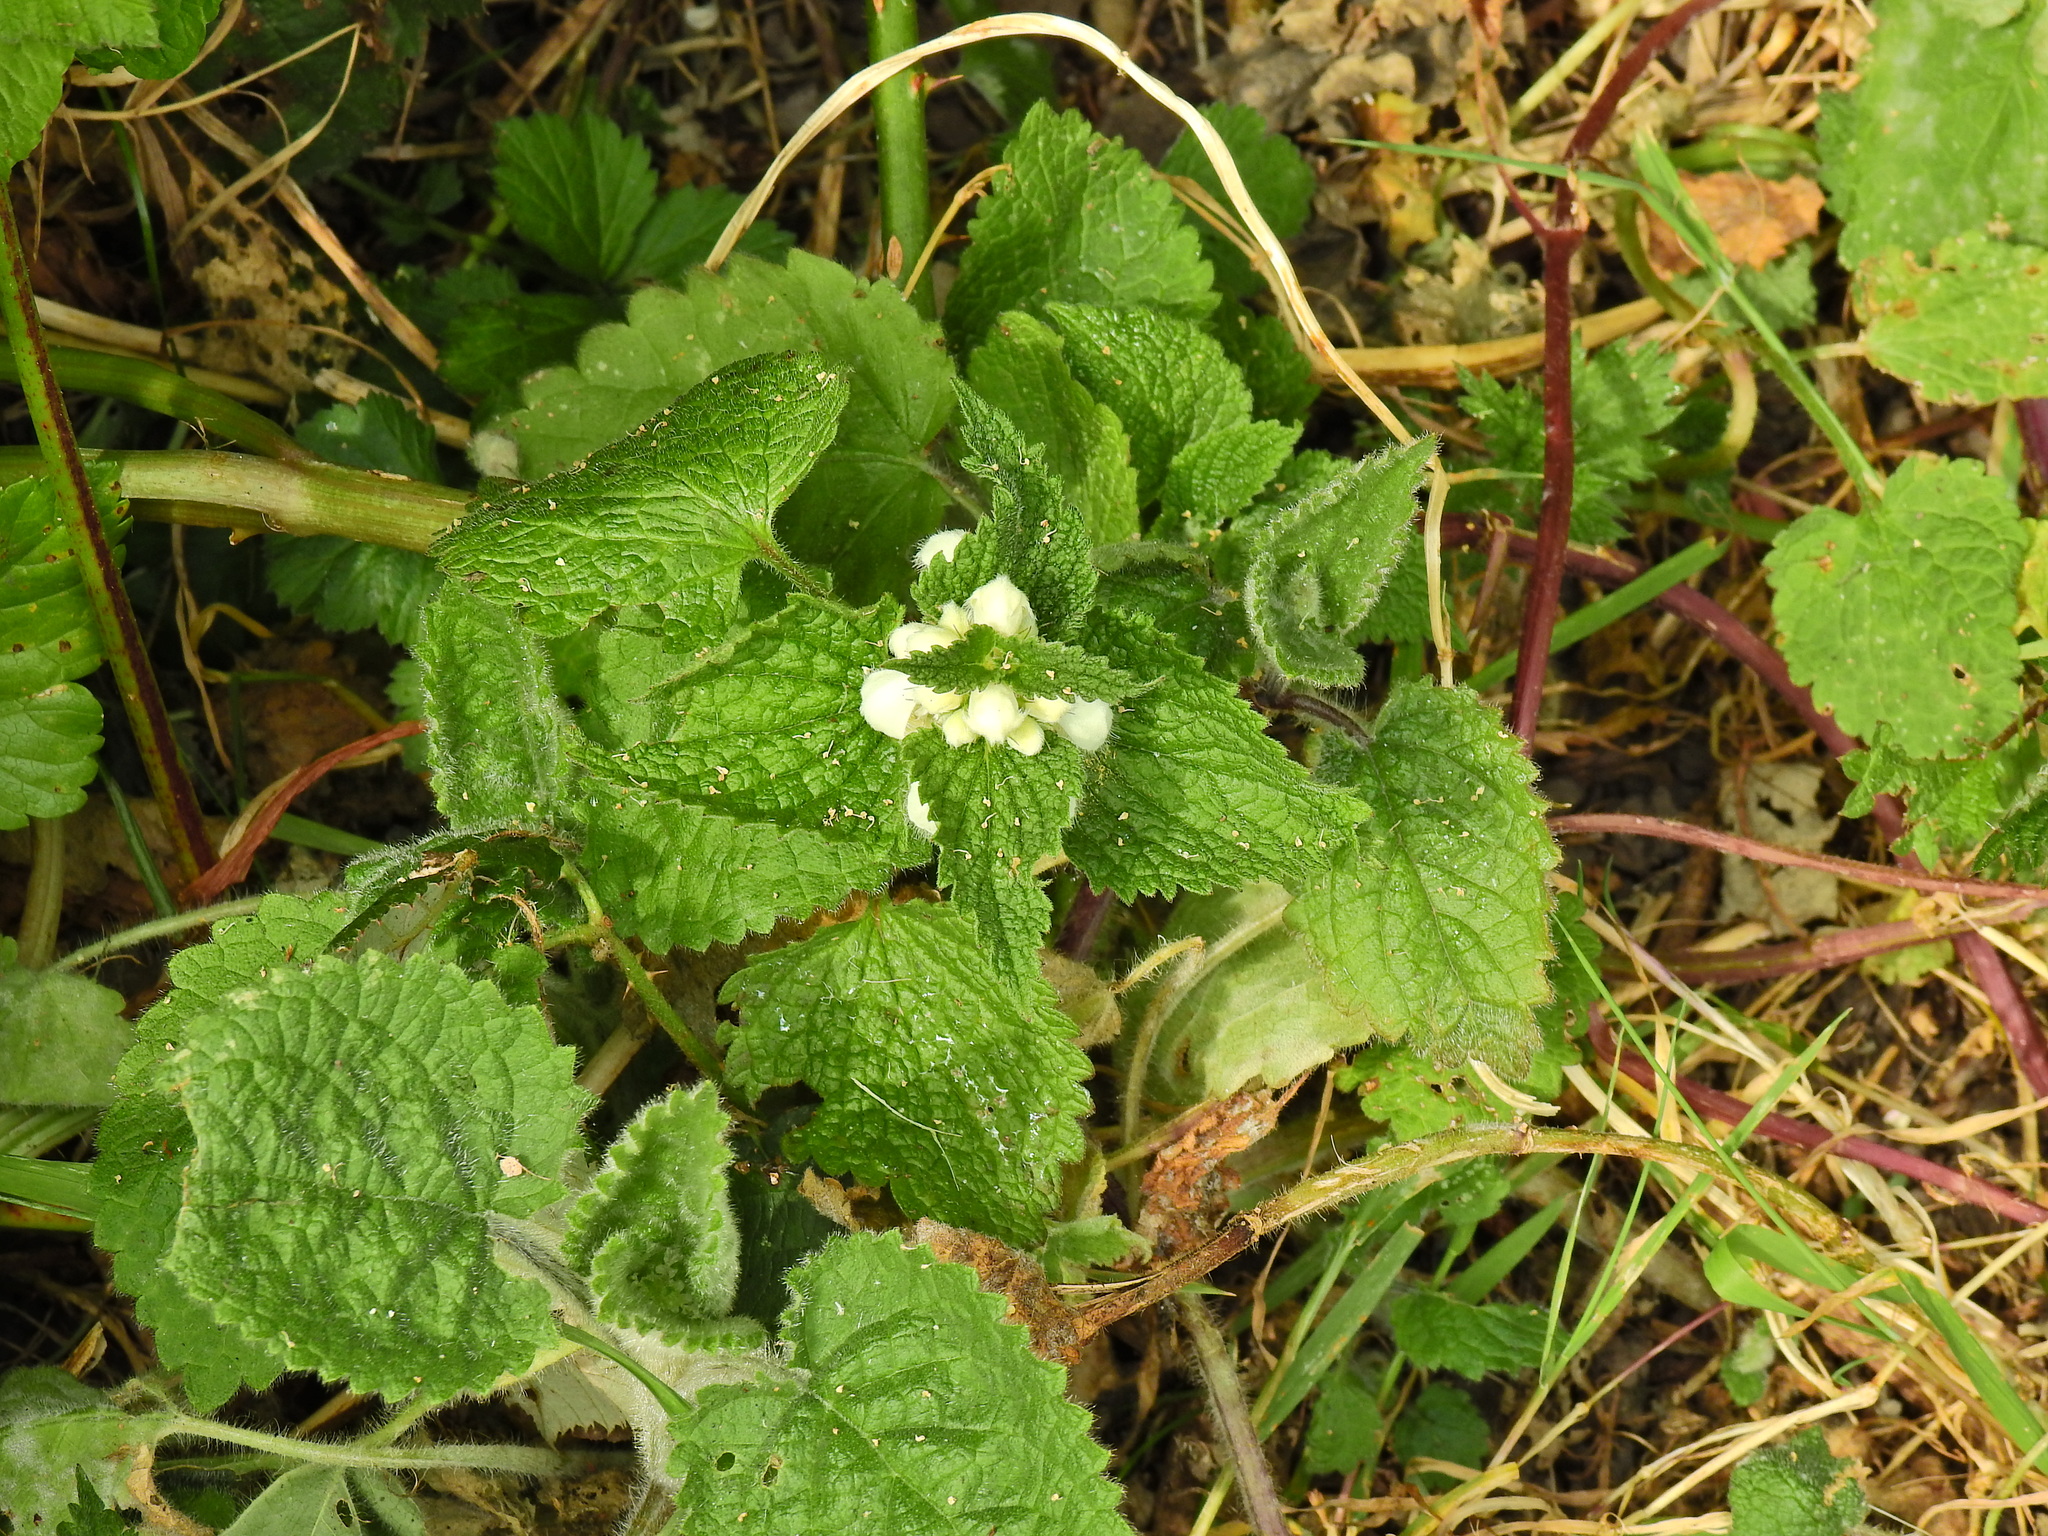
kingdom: Plantae
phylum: Tracheophyta
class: Magnoliopsida
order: Lamiales
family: Lamiaceae
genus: Lamium
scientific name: Lamium album
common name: White dead-nettle
